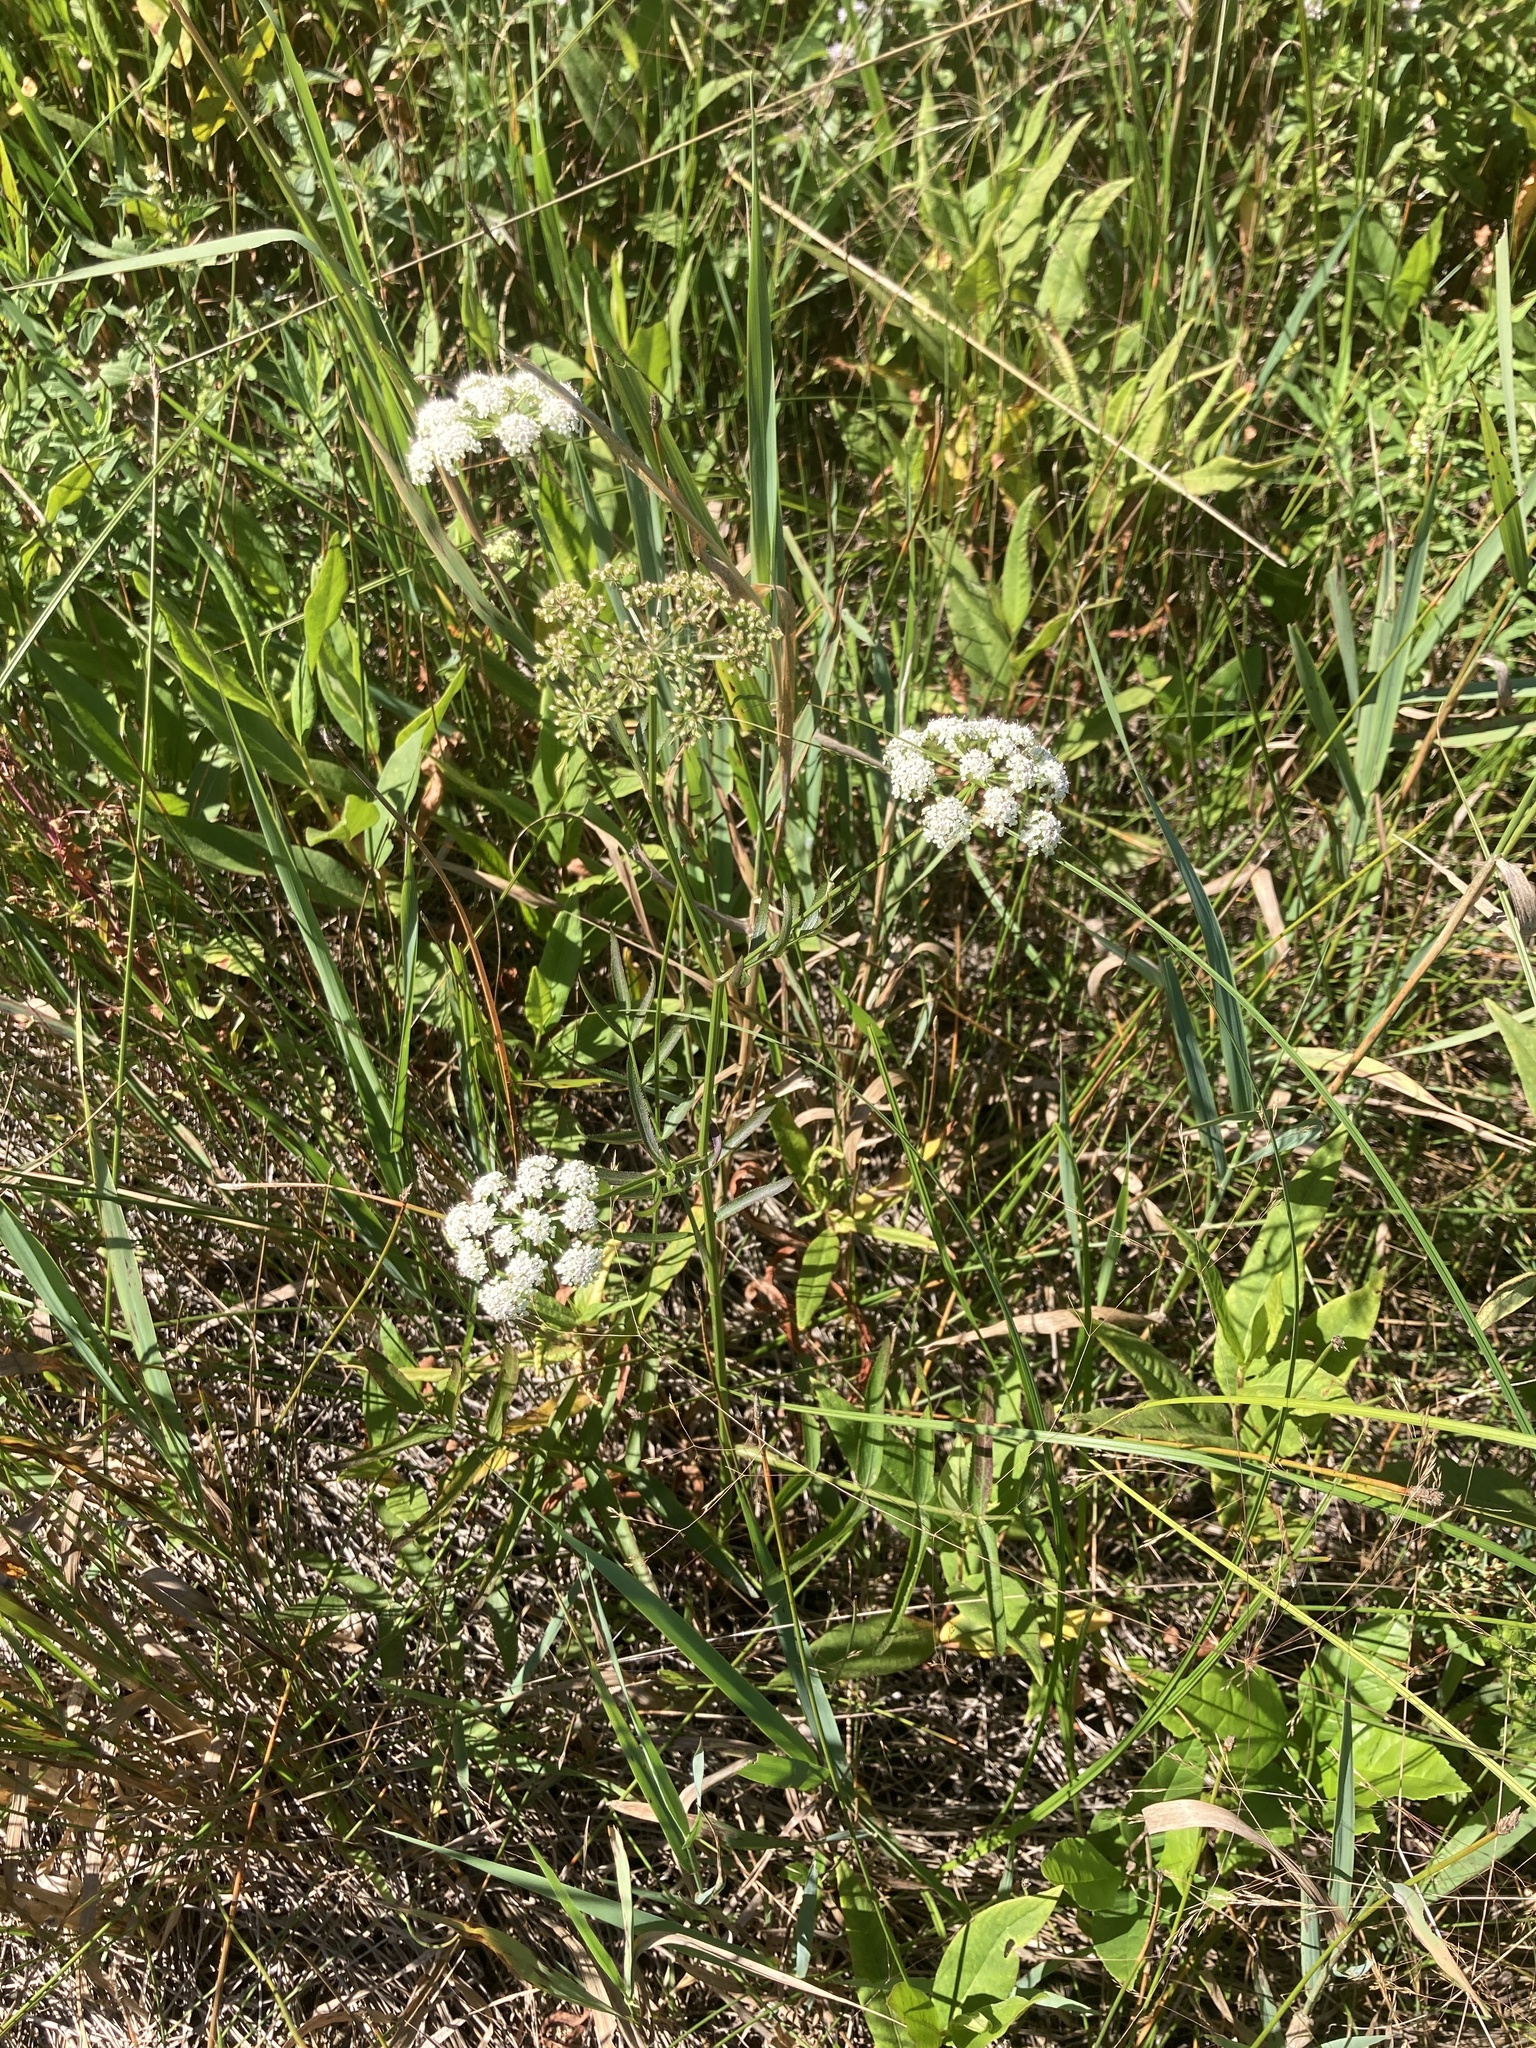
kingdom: Plantae
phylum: Tracheophyta
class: Magnoliopsida
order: Apiales
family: Apiaceae
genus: Sium
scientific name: Sium suave
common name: Hemlock water-parsnip
